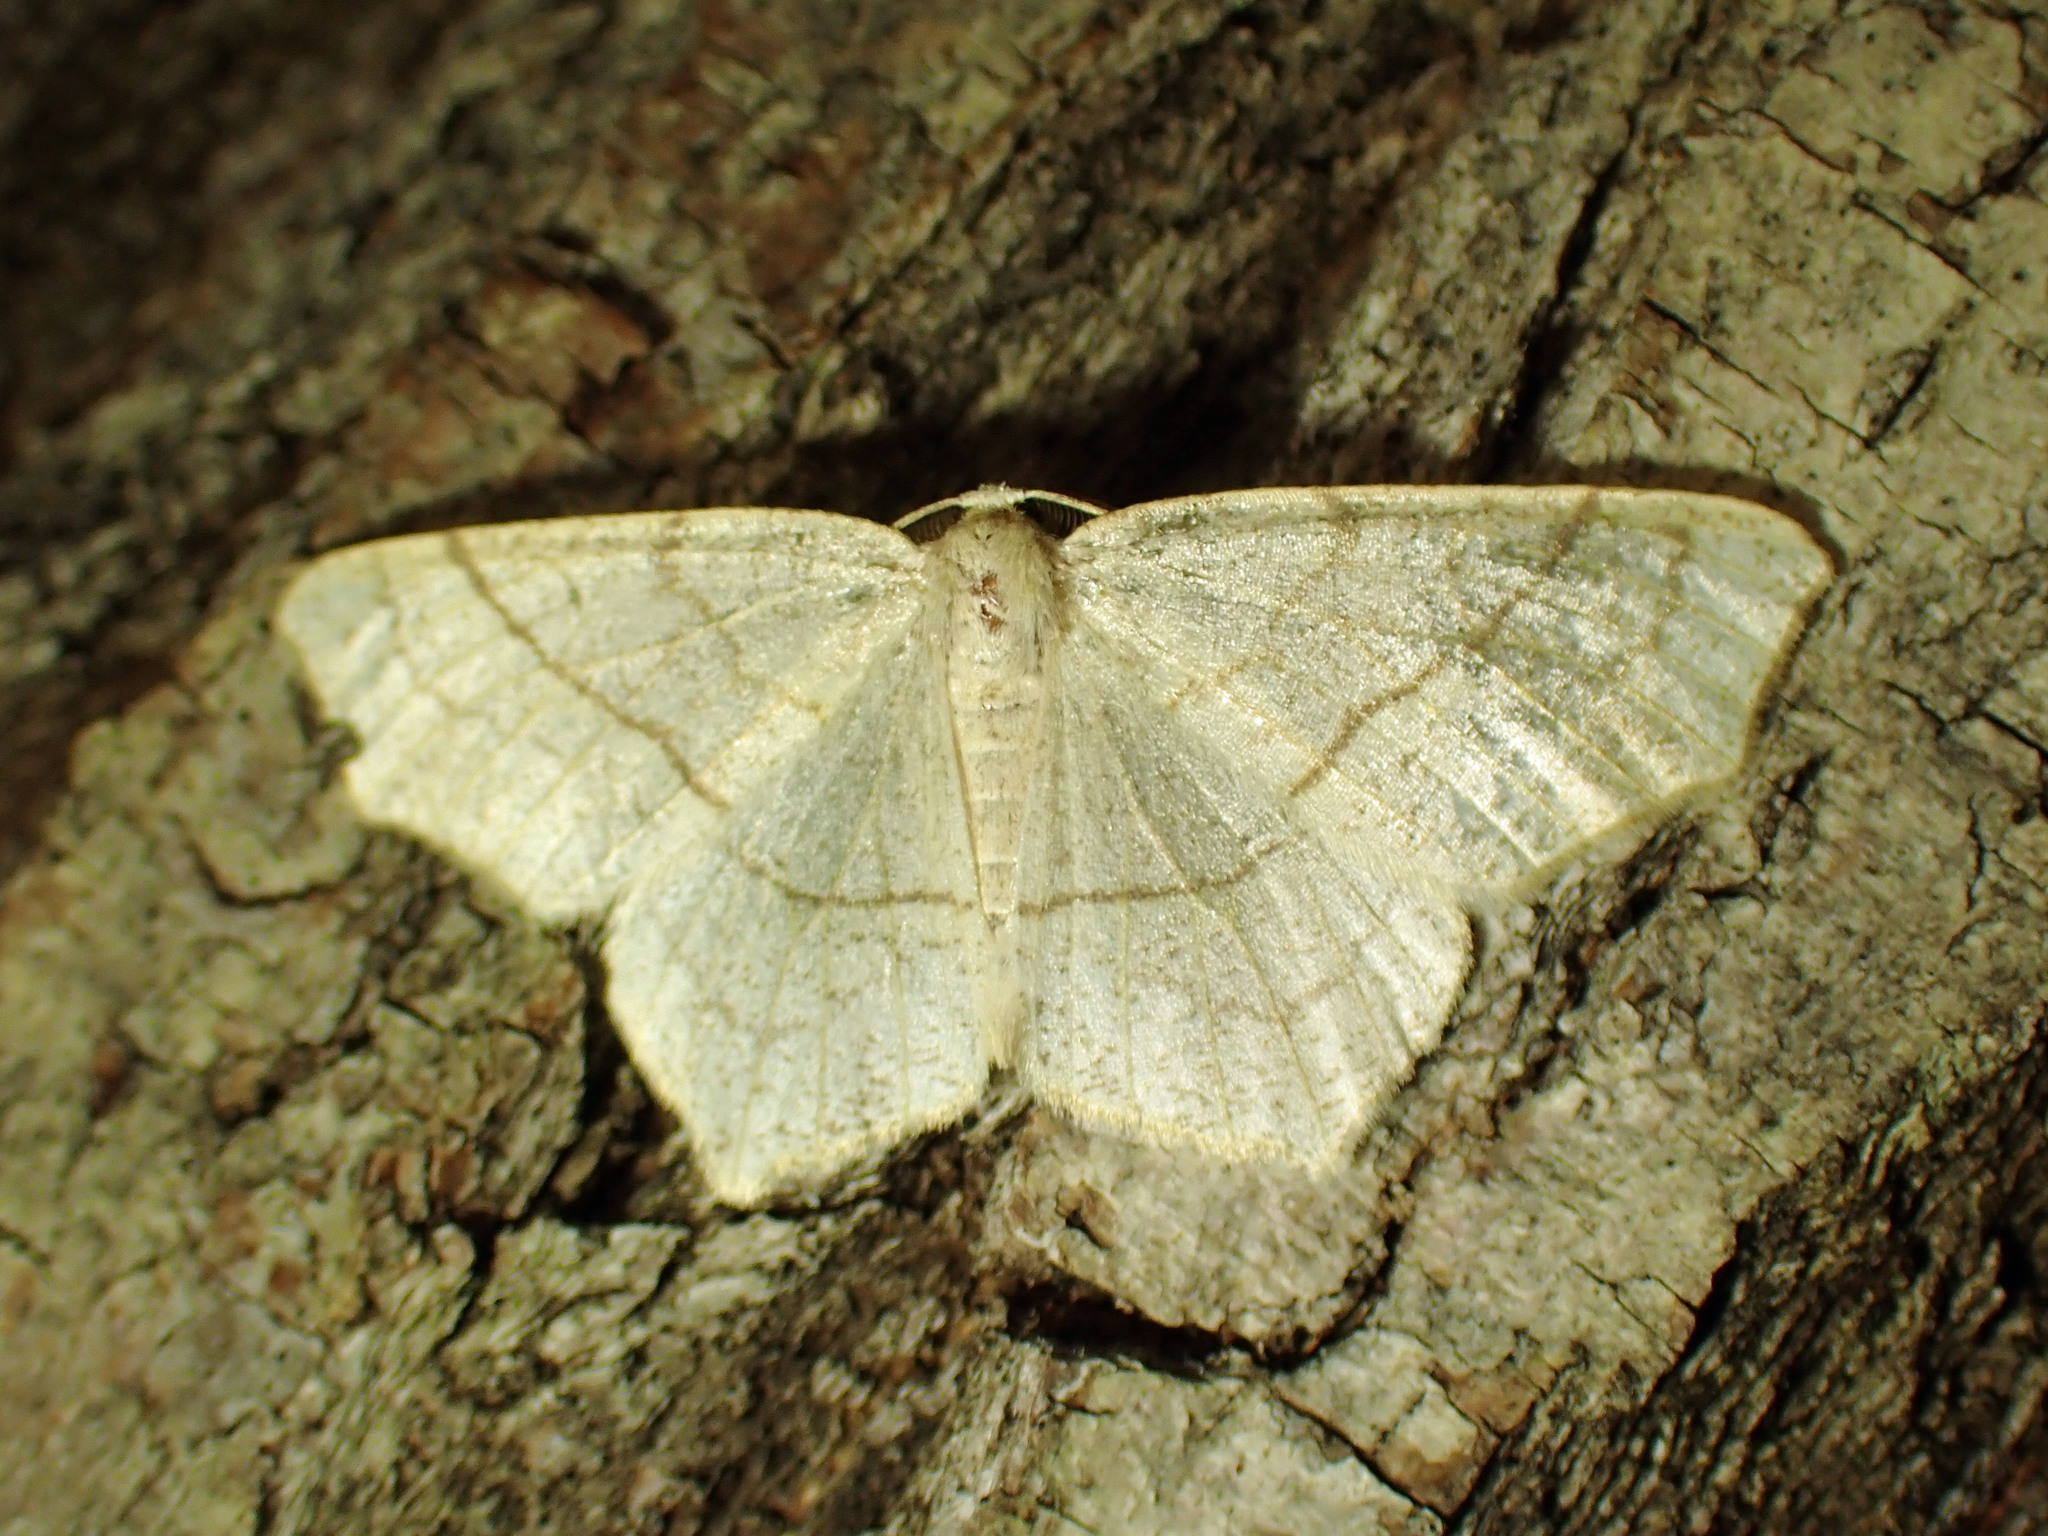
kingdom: Animalia
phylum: Arthropoda
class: Insecta
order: Lepidoptera
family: Geometridae
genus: Besma
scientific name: Besma quercivoraria
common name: Oak besma
